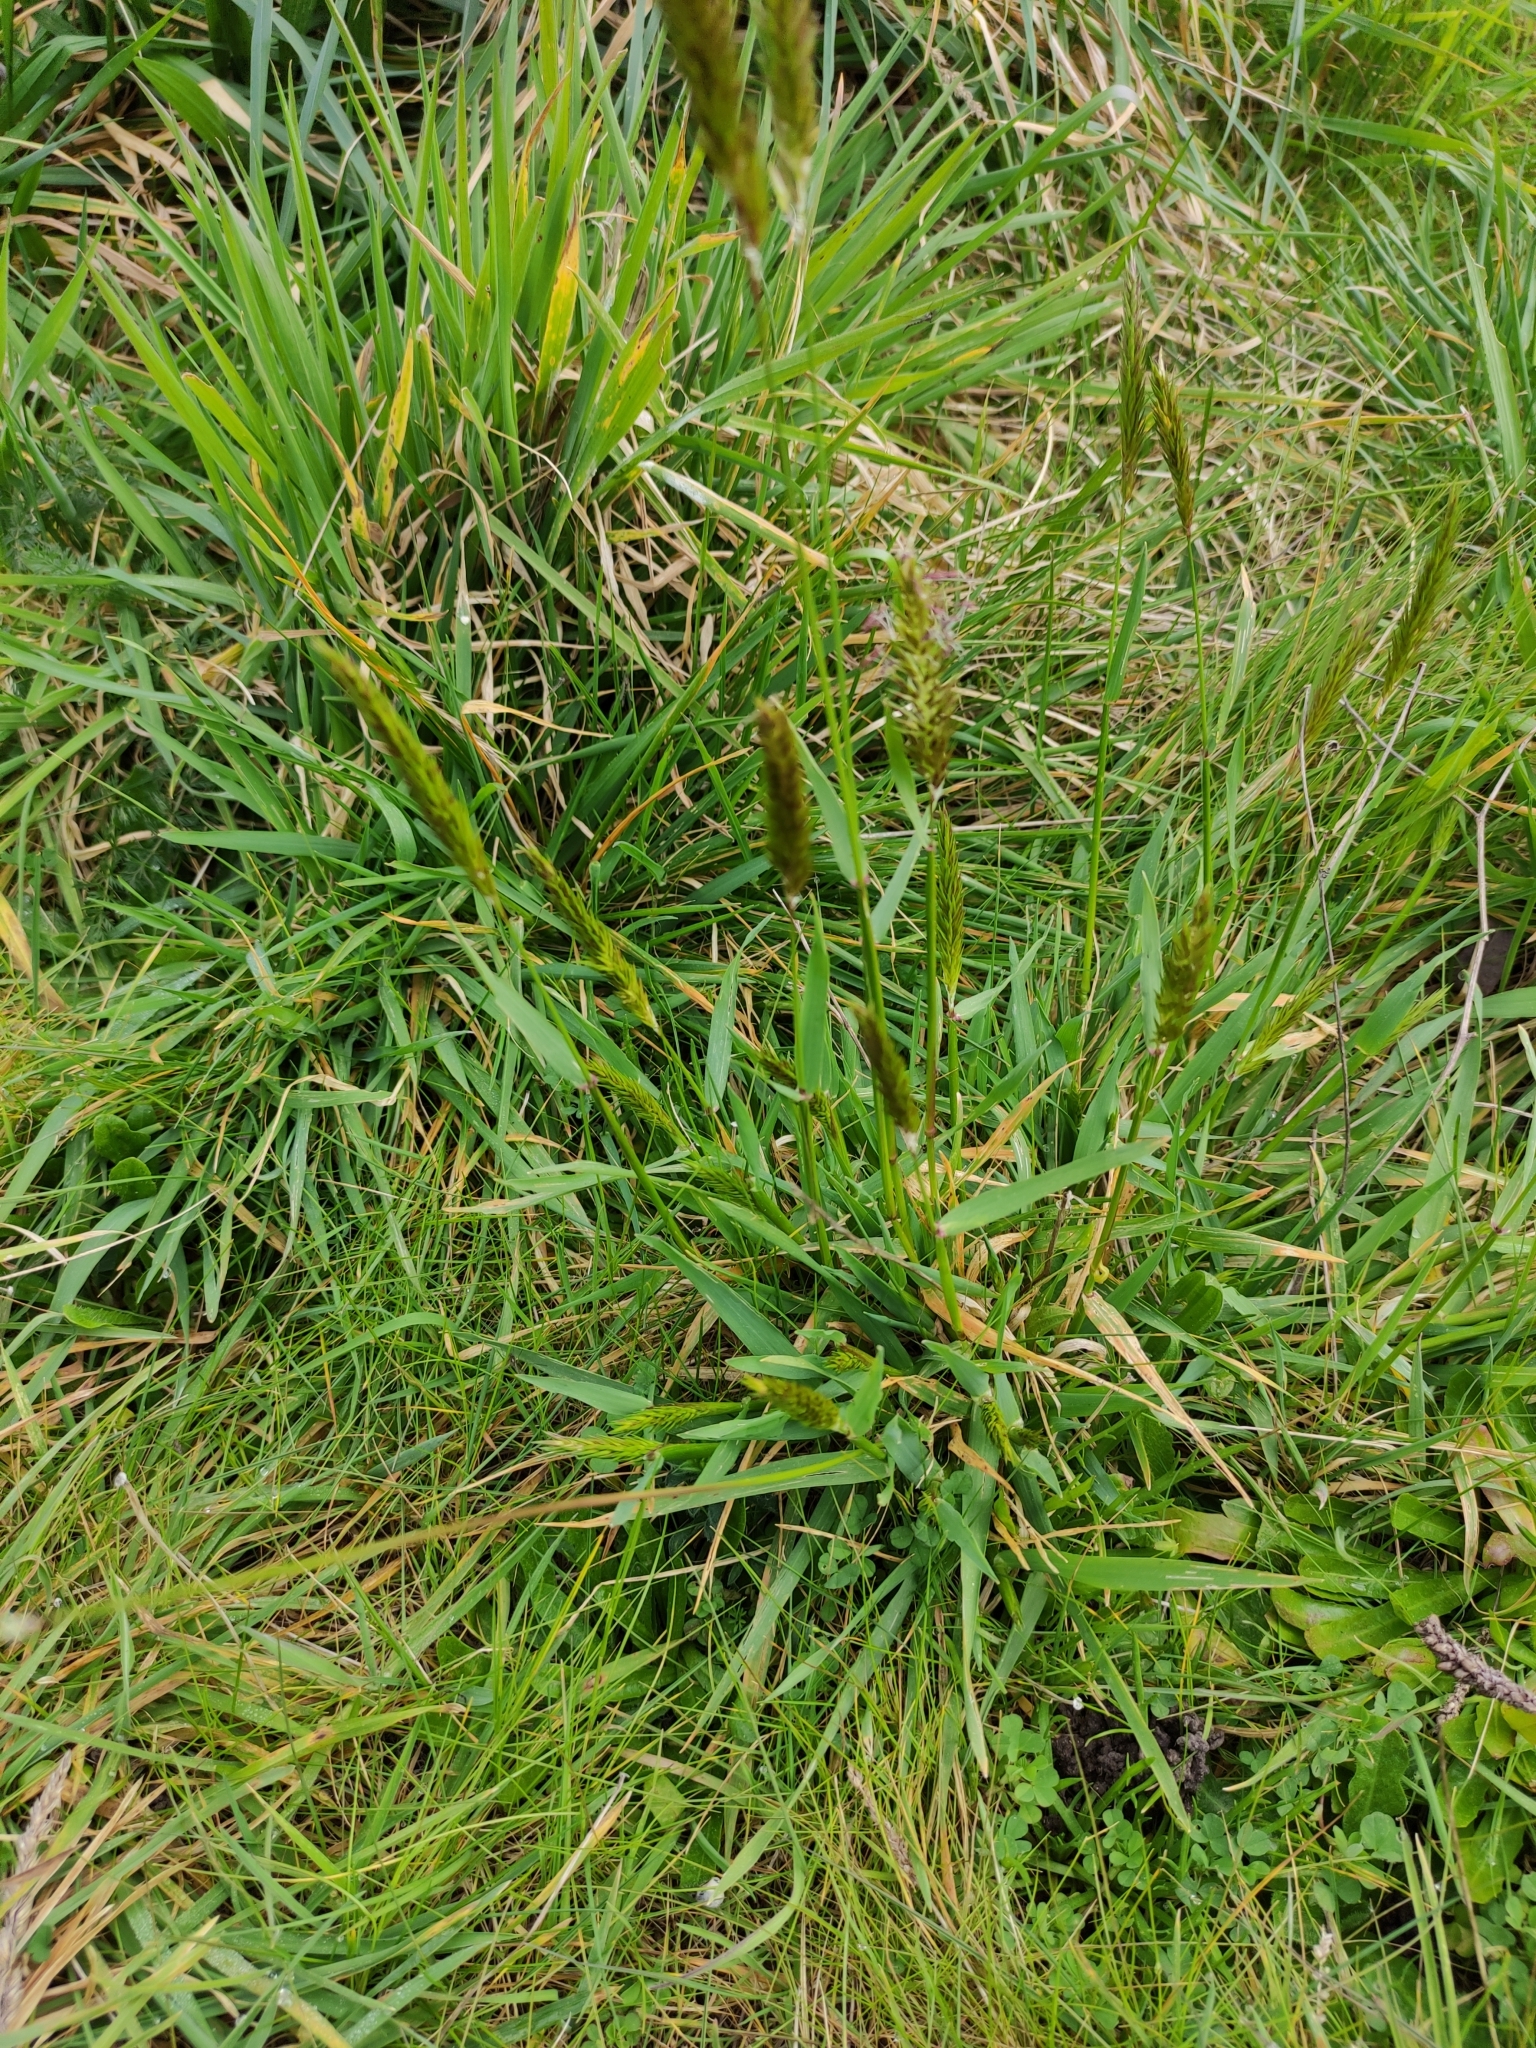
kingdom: Plantae
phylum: Tracheophyta
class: Liliopsida
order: Poales
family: Poaceae
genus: Anthoxanthum
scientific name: Anthoxanthum odoratum
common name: Sweet vernalgrass
